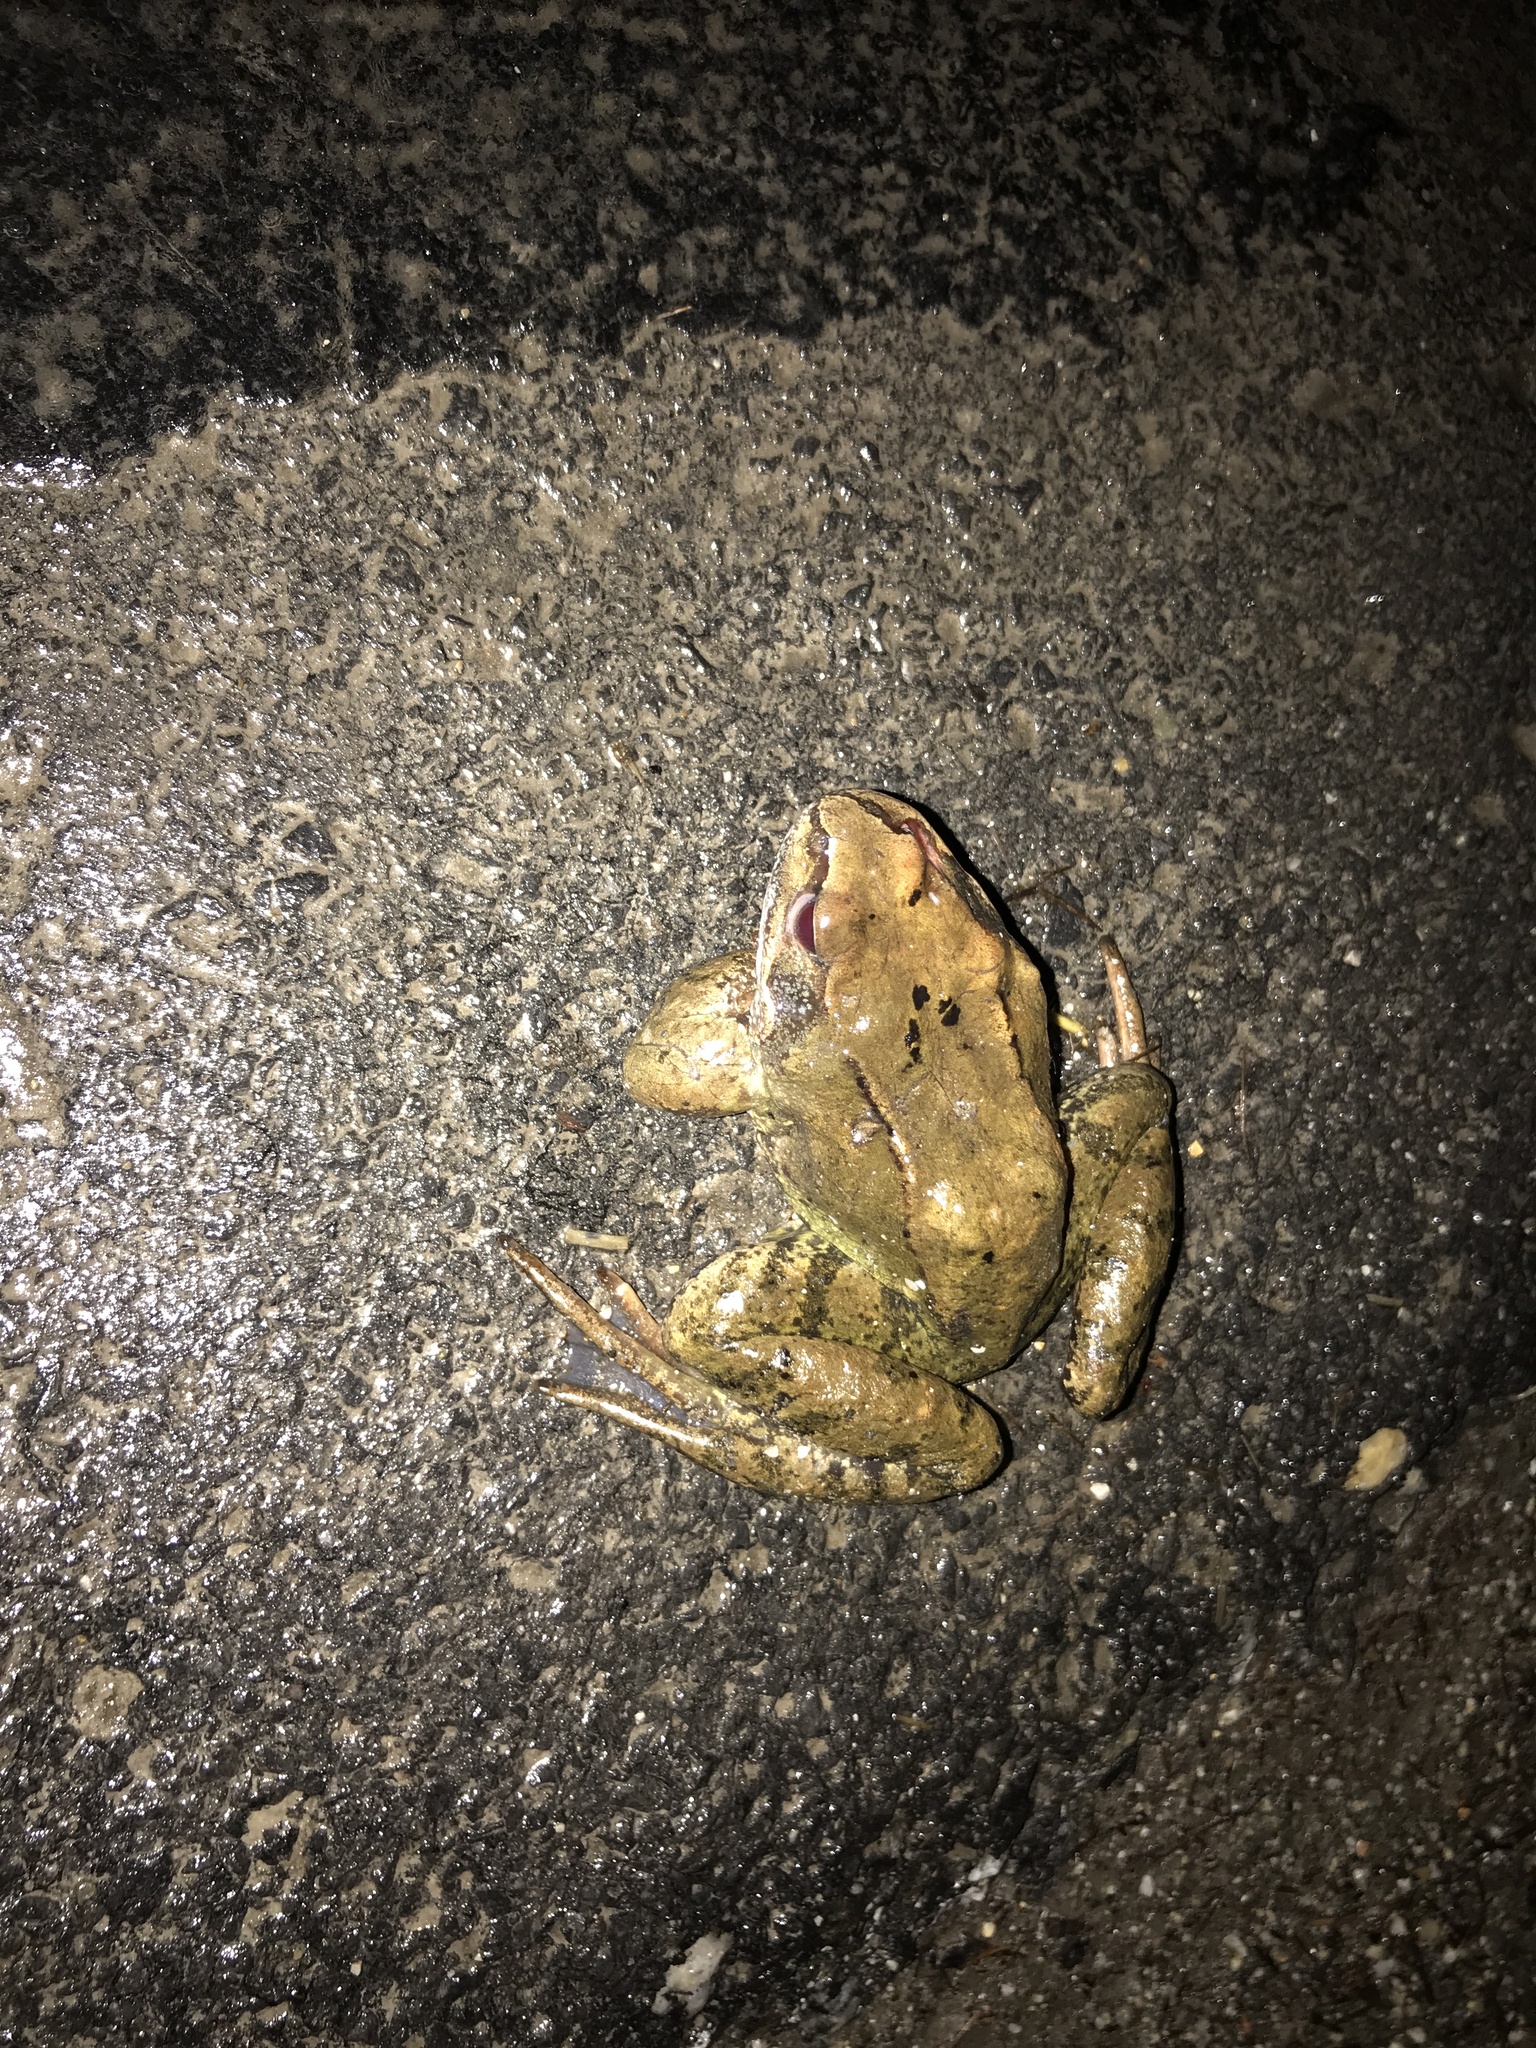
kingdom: Animalia
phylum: Chordata
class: Amphibia
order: Anura
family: Ranidae
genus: Rana
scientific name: Rana temporaria
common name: Common frog
